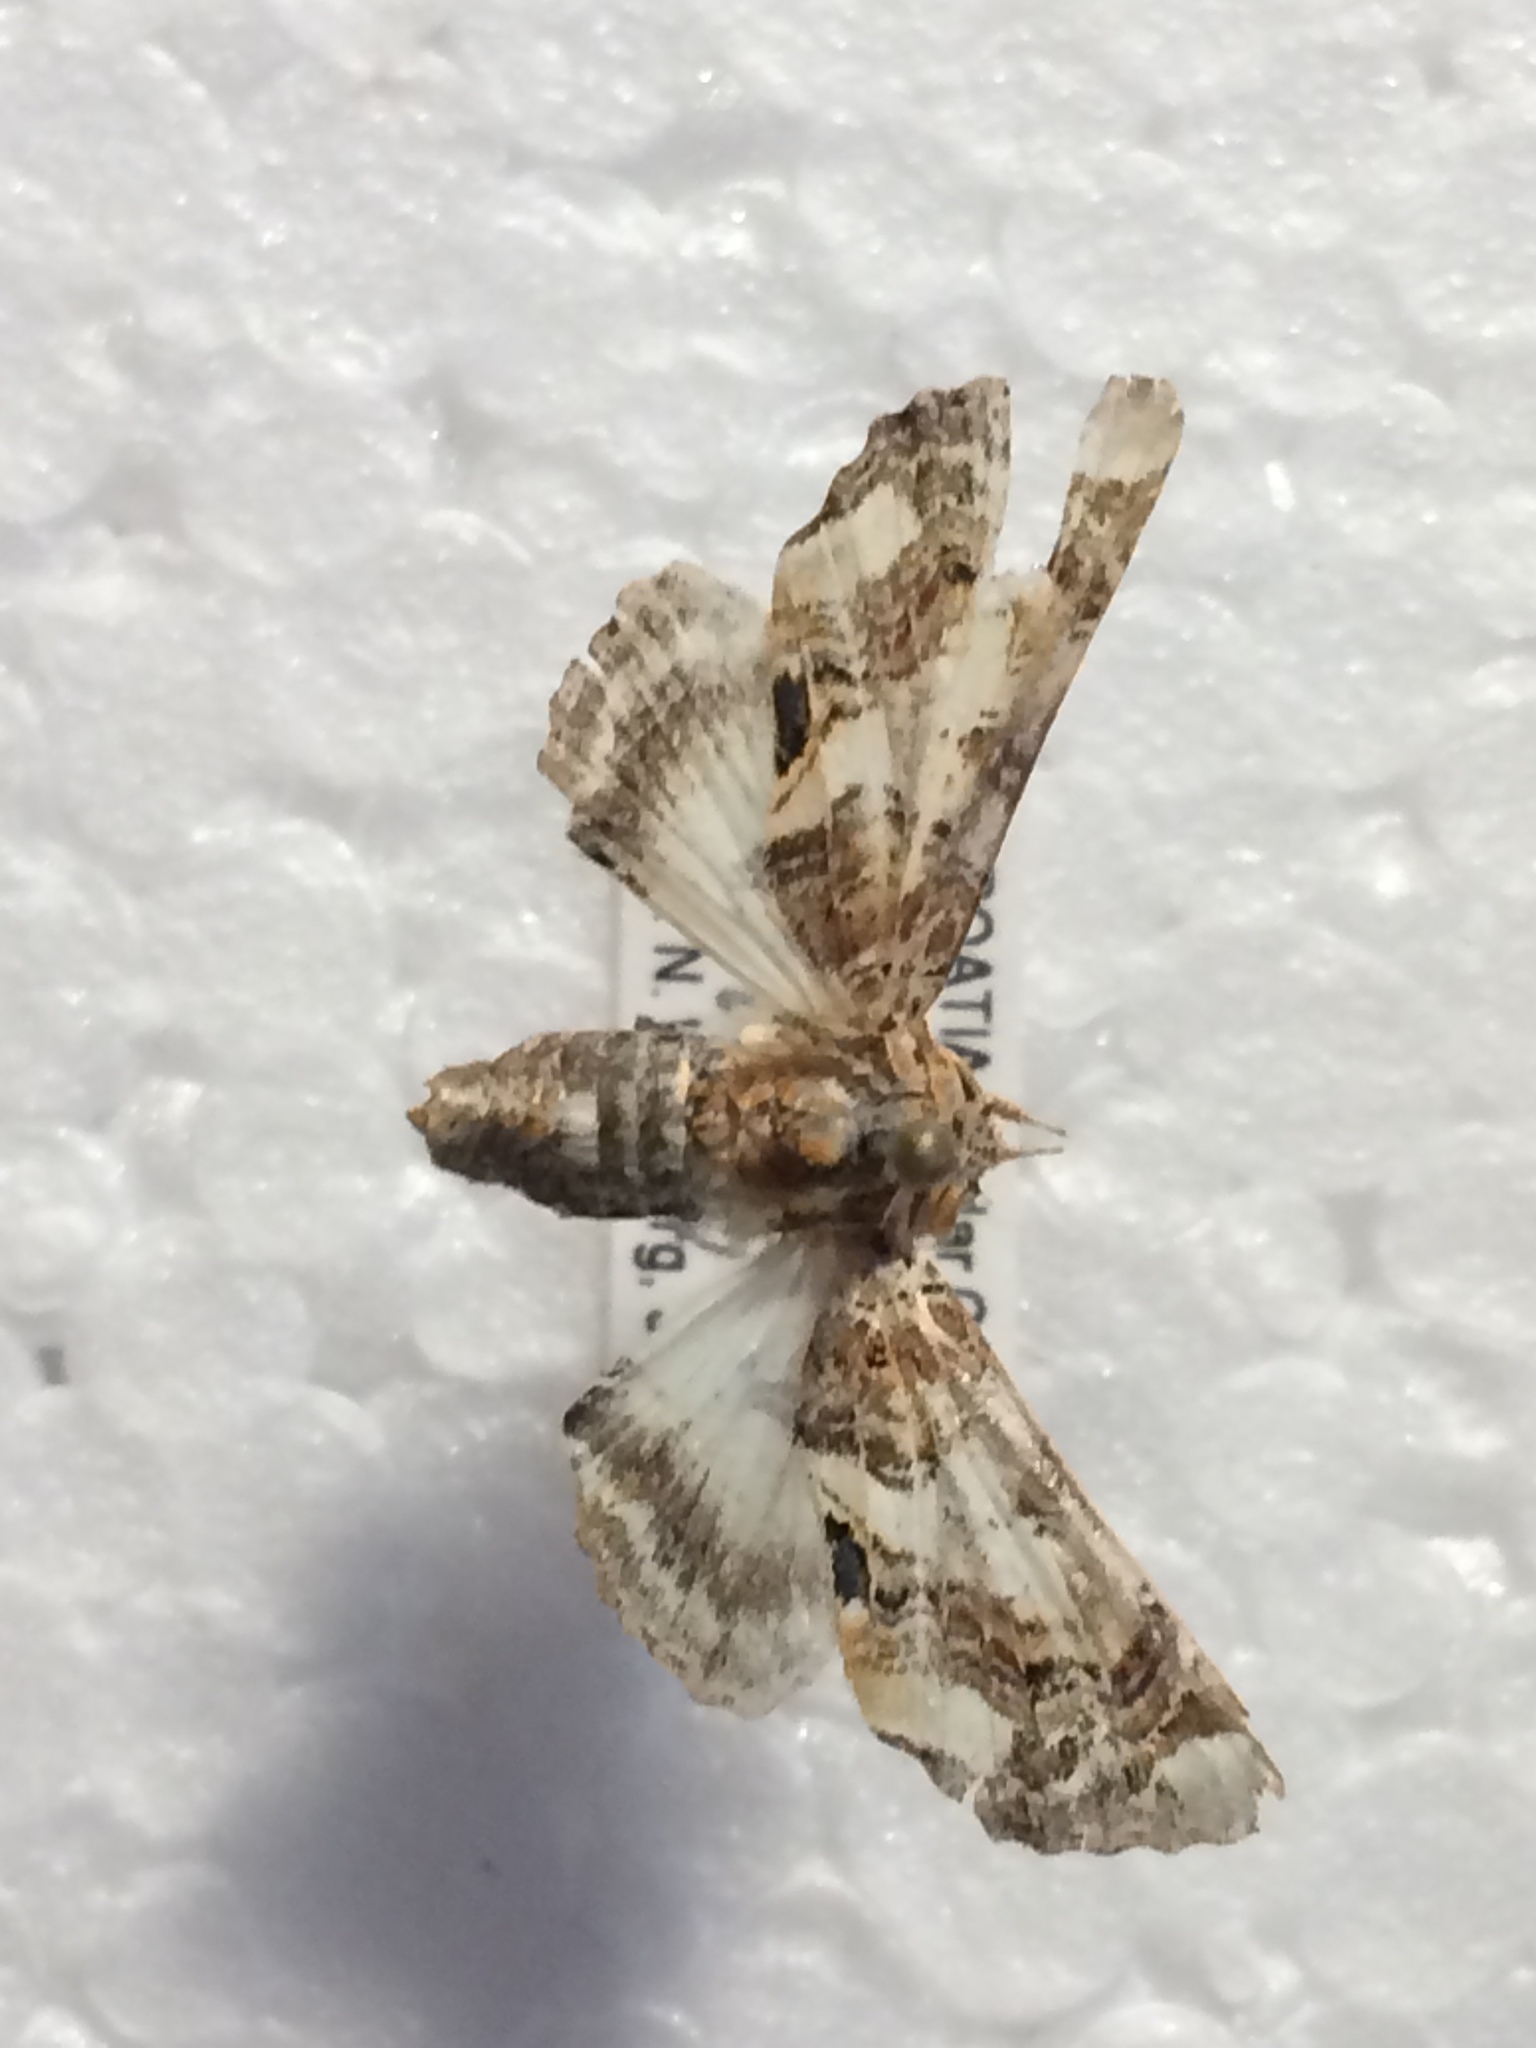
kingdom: Animalia
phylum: Arthropoda
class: Insecta
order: Lepidoptera
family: Euteliidae
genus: Eutelia
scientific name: Eutelia adulatrix
